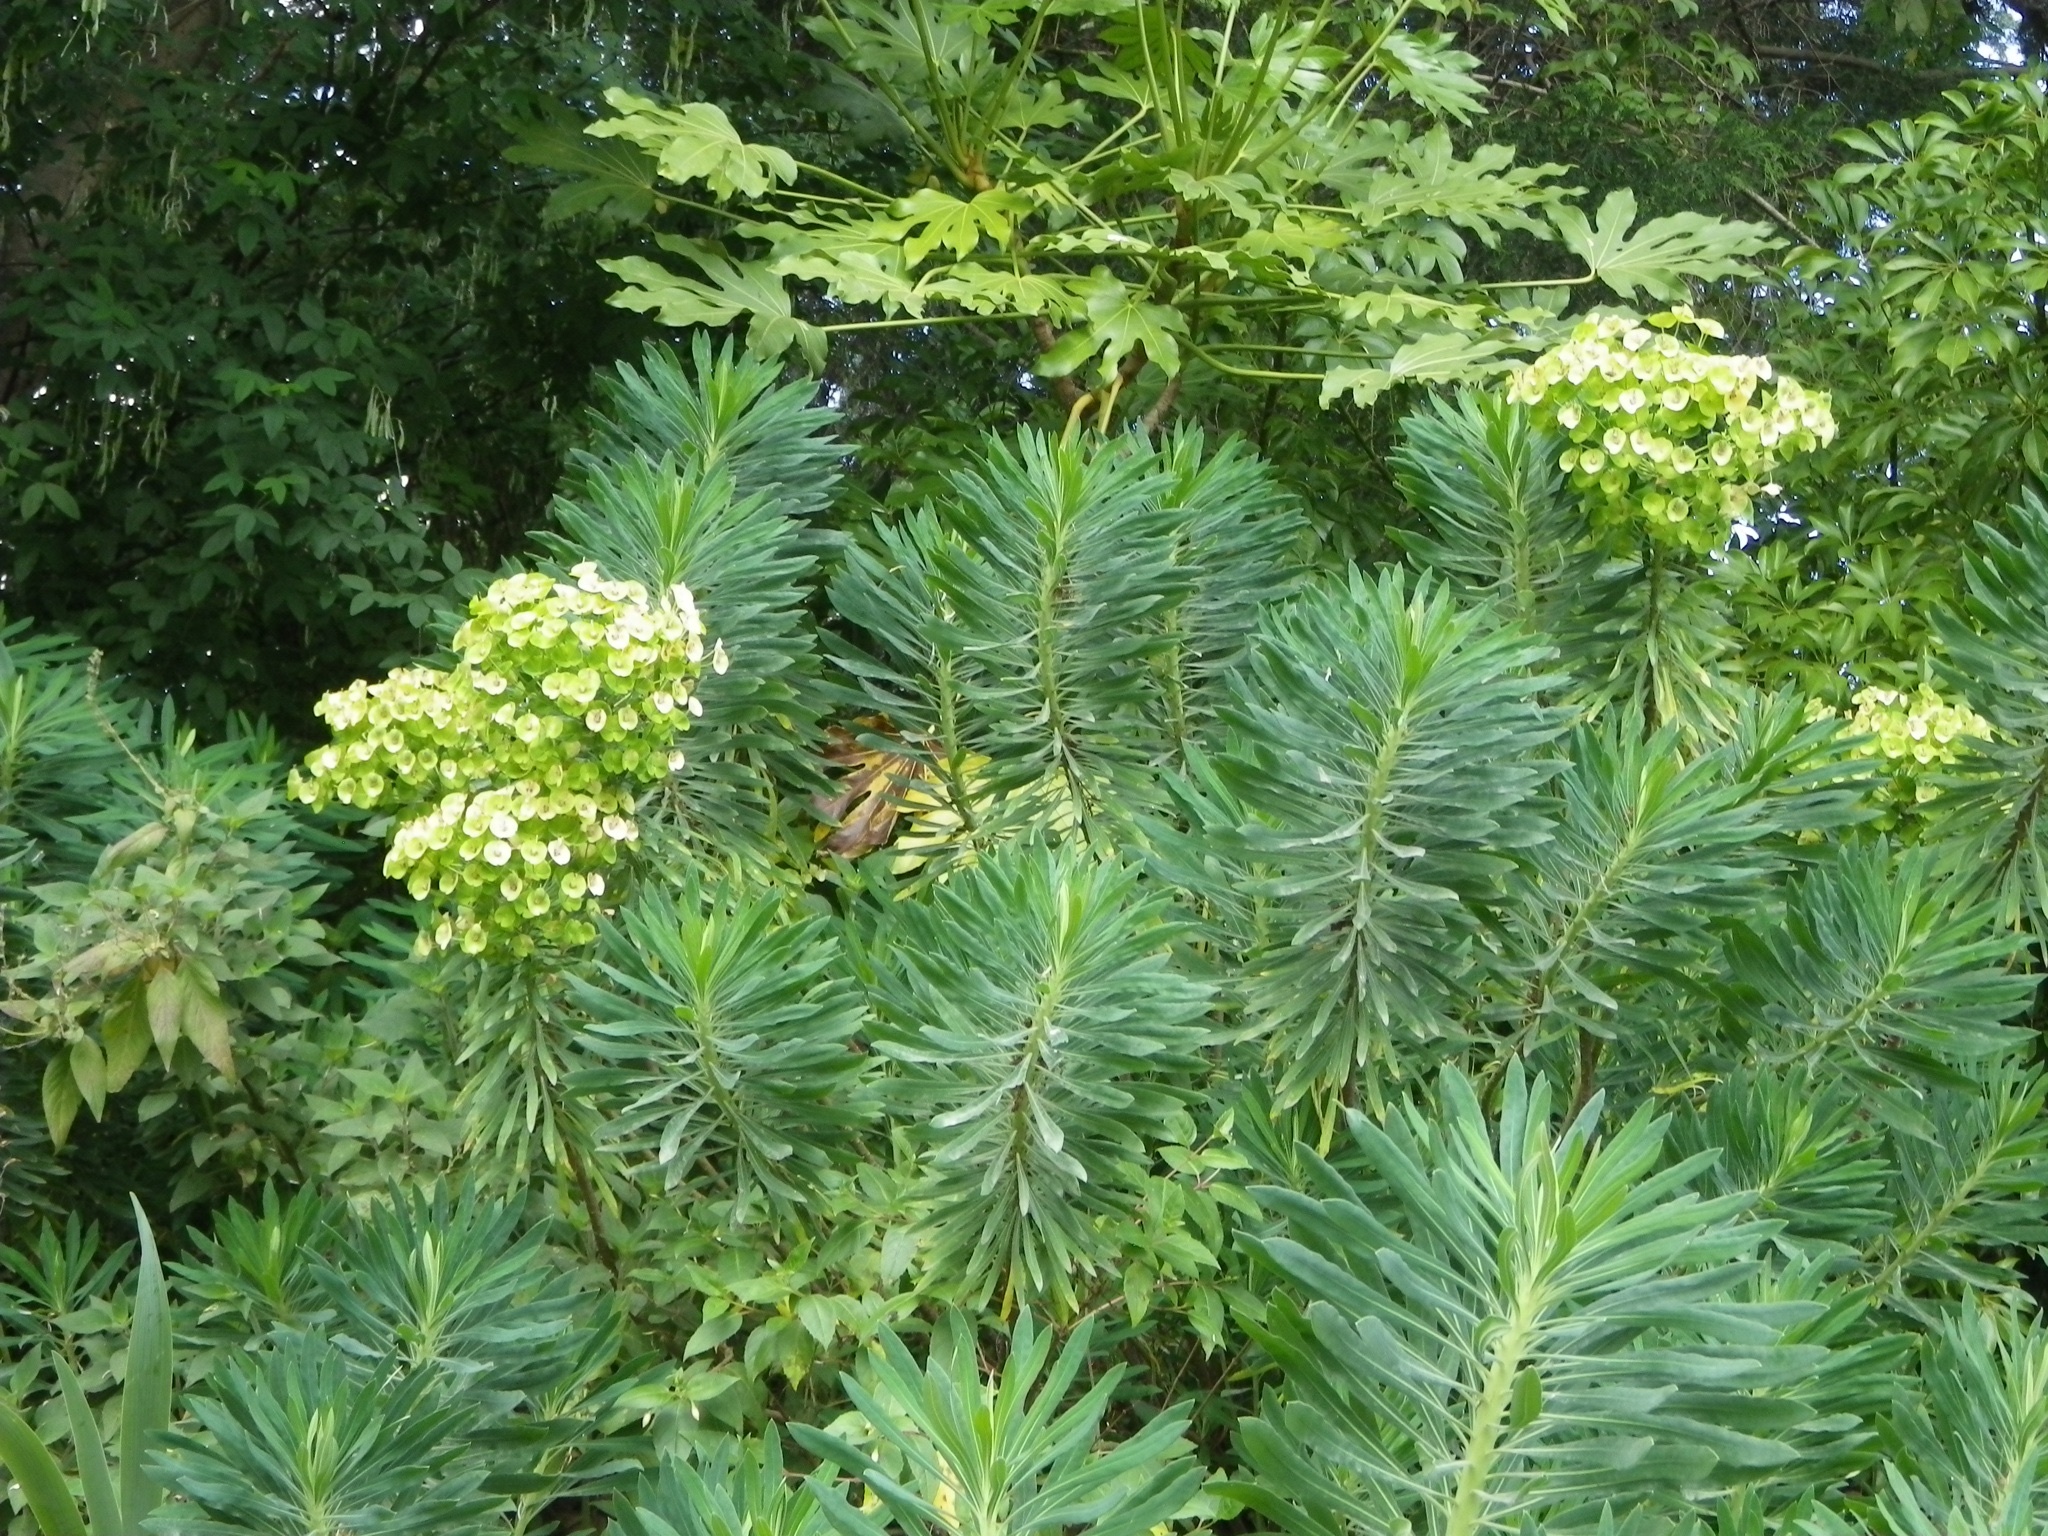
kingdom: Plantae
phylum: Tracheophyta
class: Magnoliopsida
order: Malpighiales
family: Euphorbiaceae
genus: Euphorbia
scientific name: Euphorbia characias
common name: Mediterranean spurge
